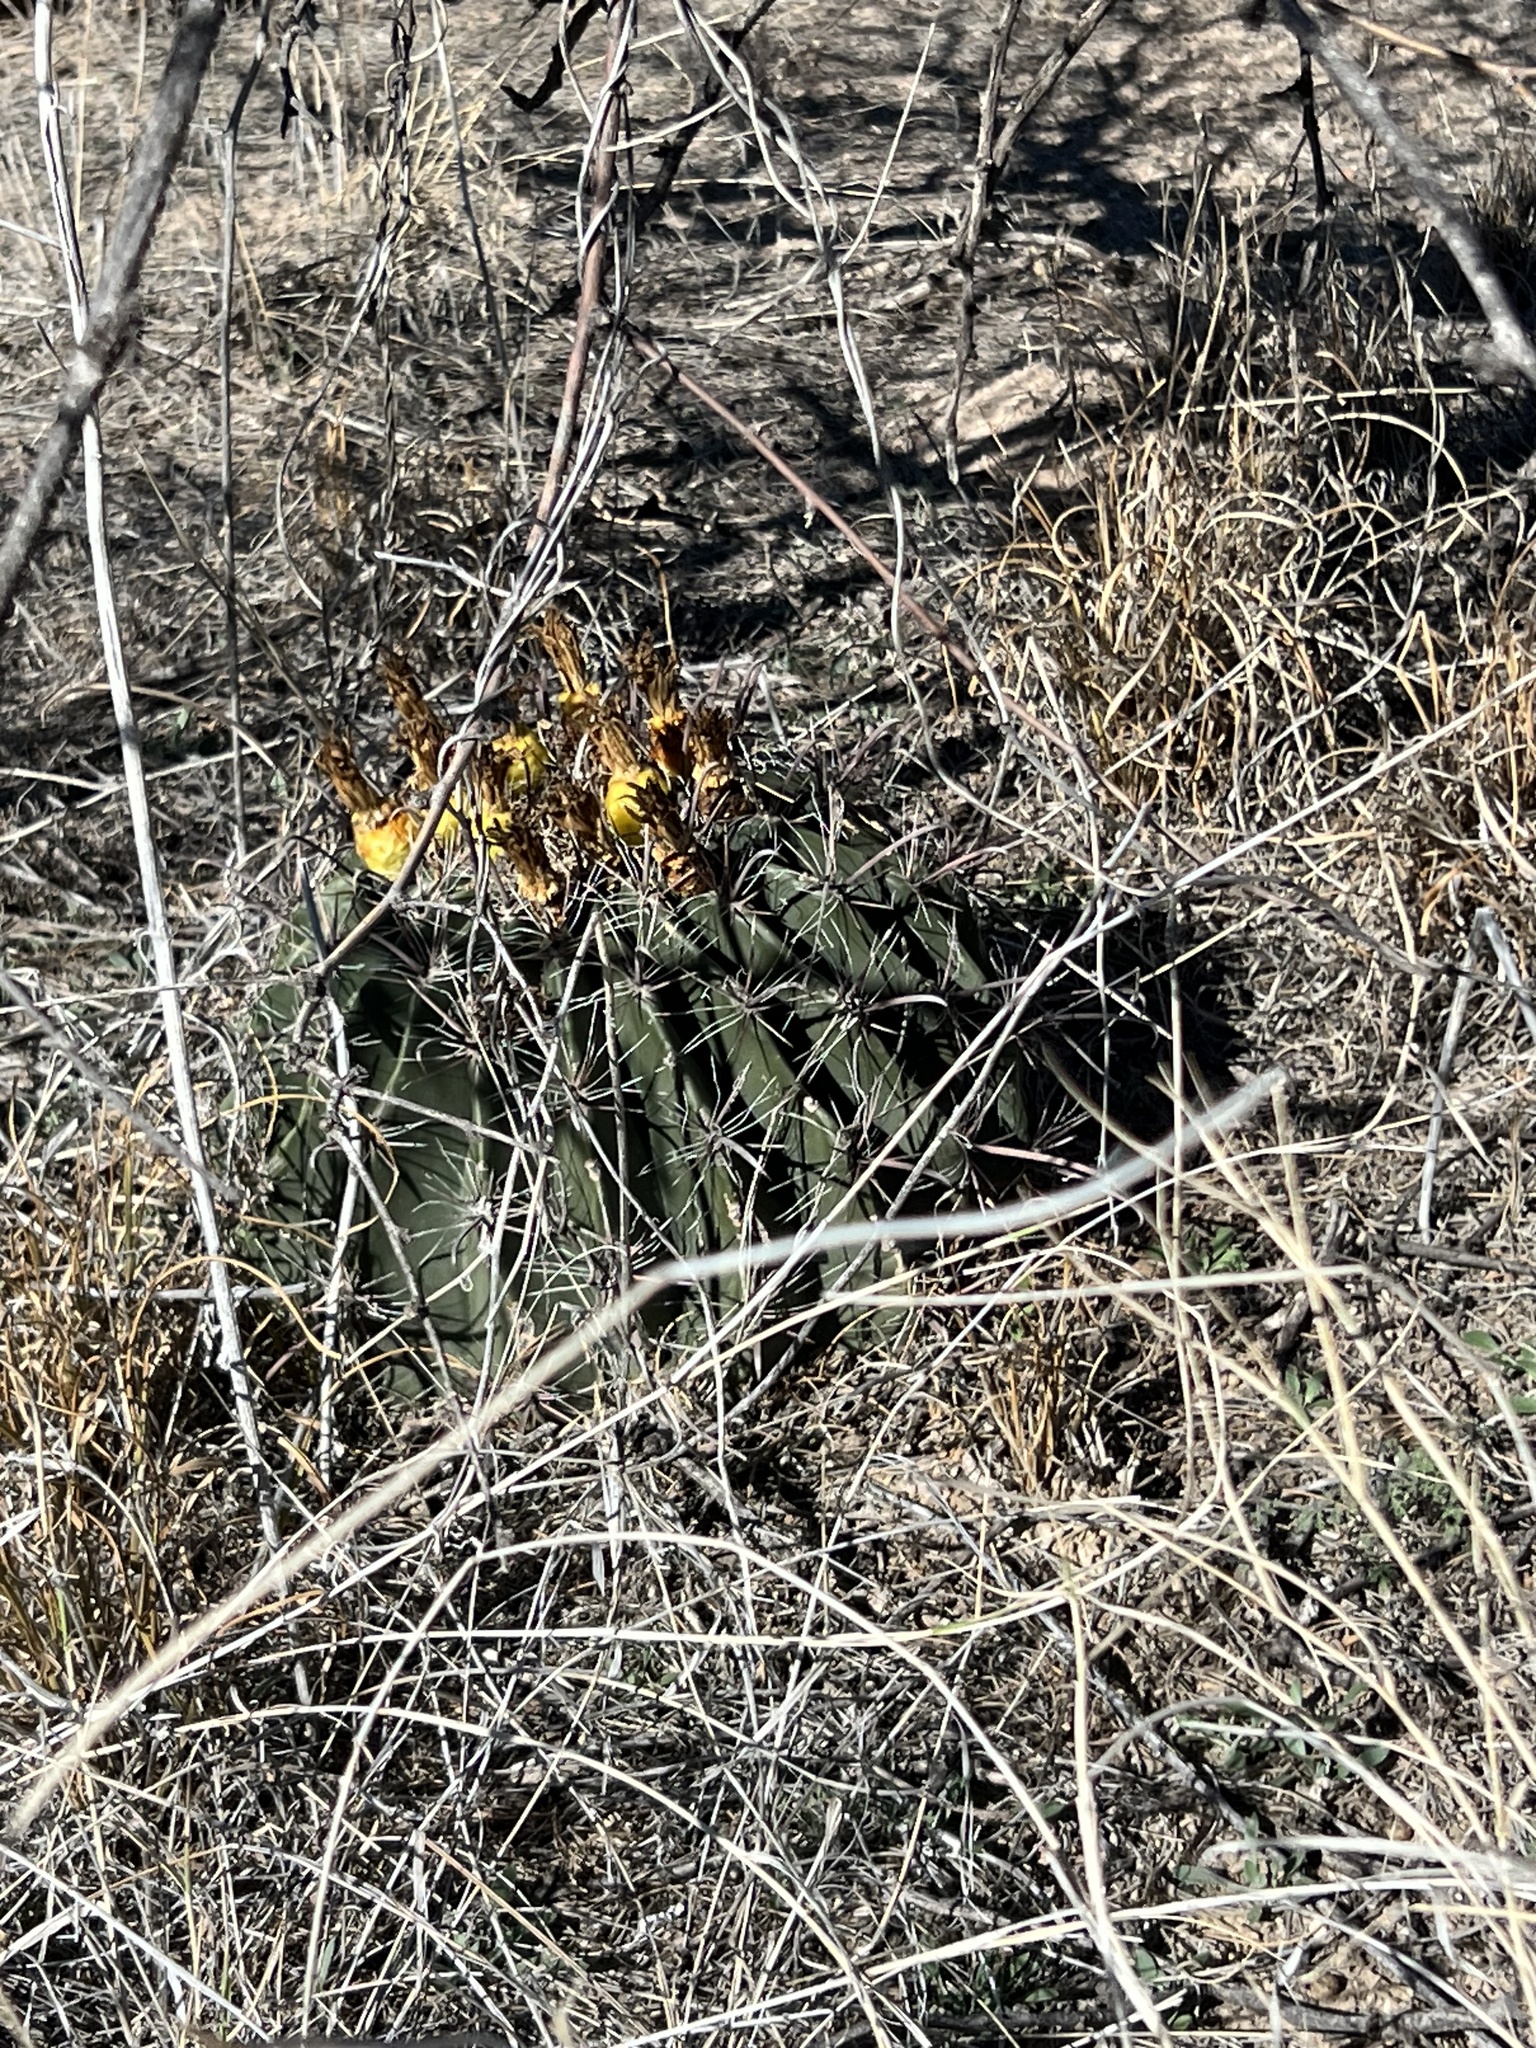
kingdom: Plantae
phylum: Tracheophyta
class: Magnoliopsida
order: Caryophyllales
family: Cactaceae
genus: Ferocactus
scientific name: Ferocactus wislizeni
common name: Candy barrel cactus
